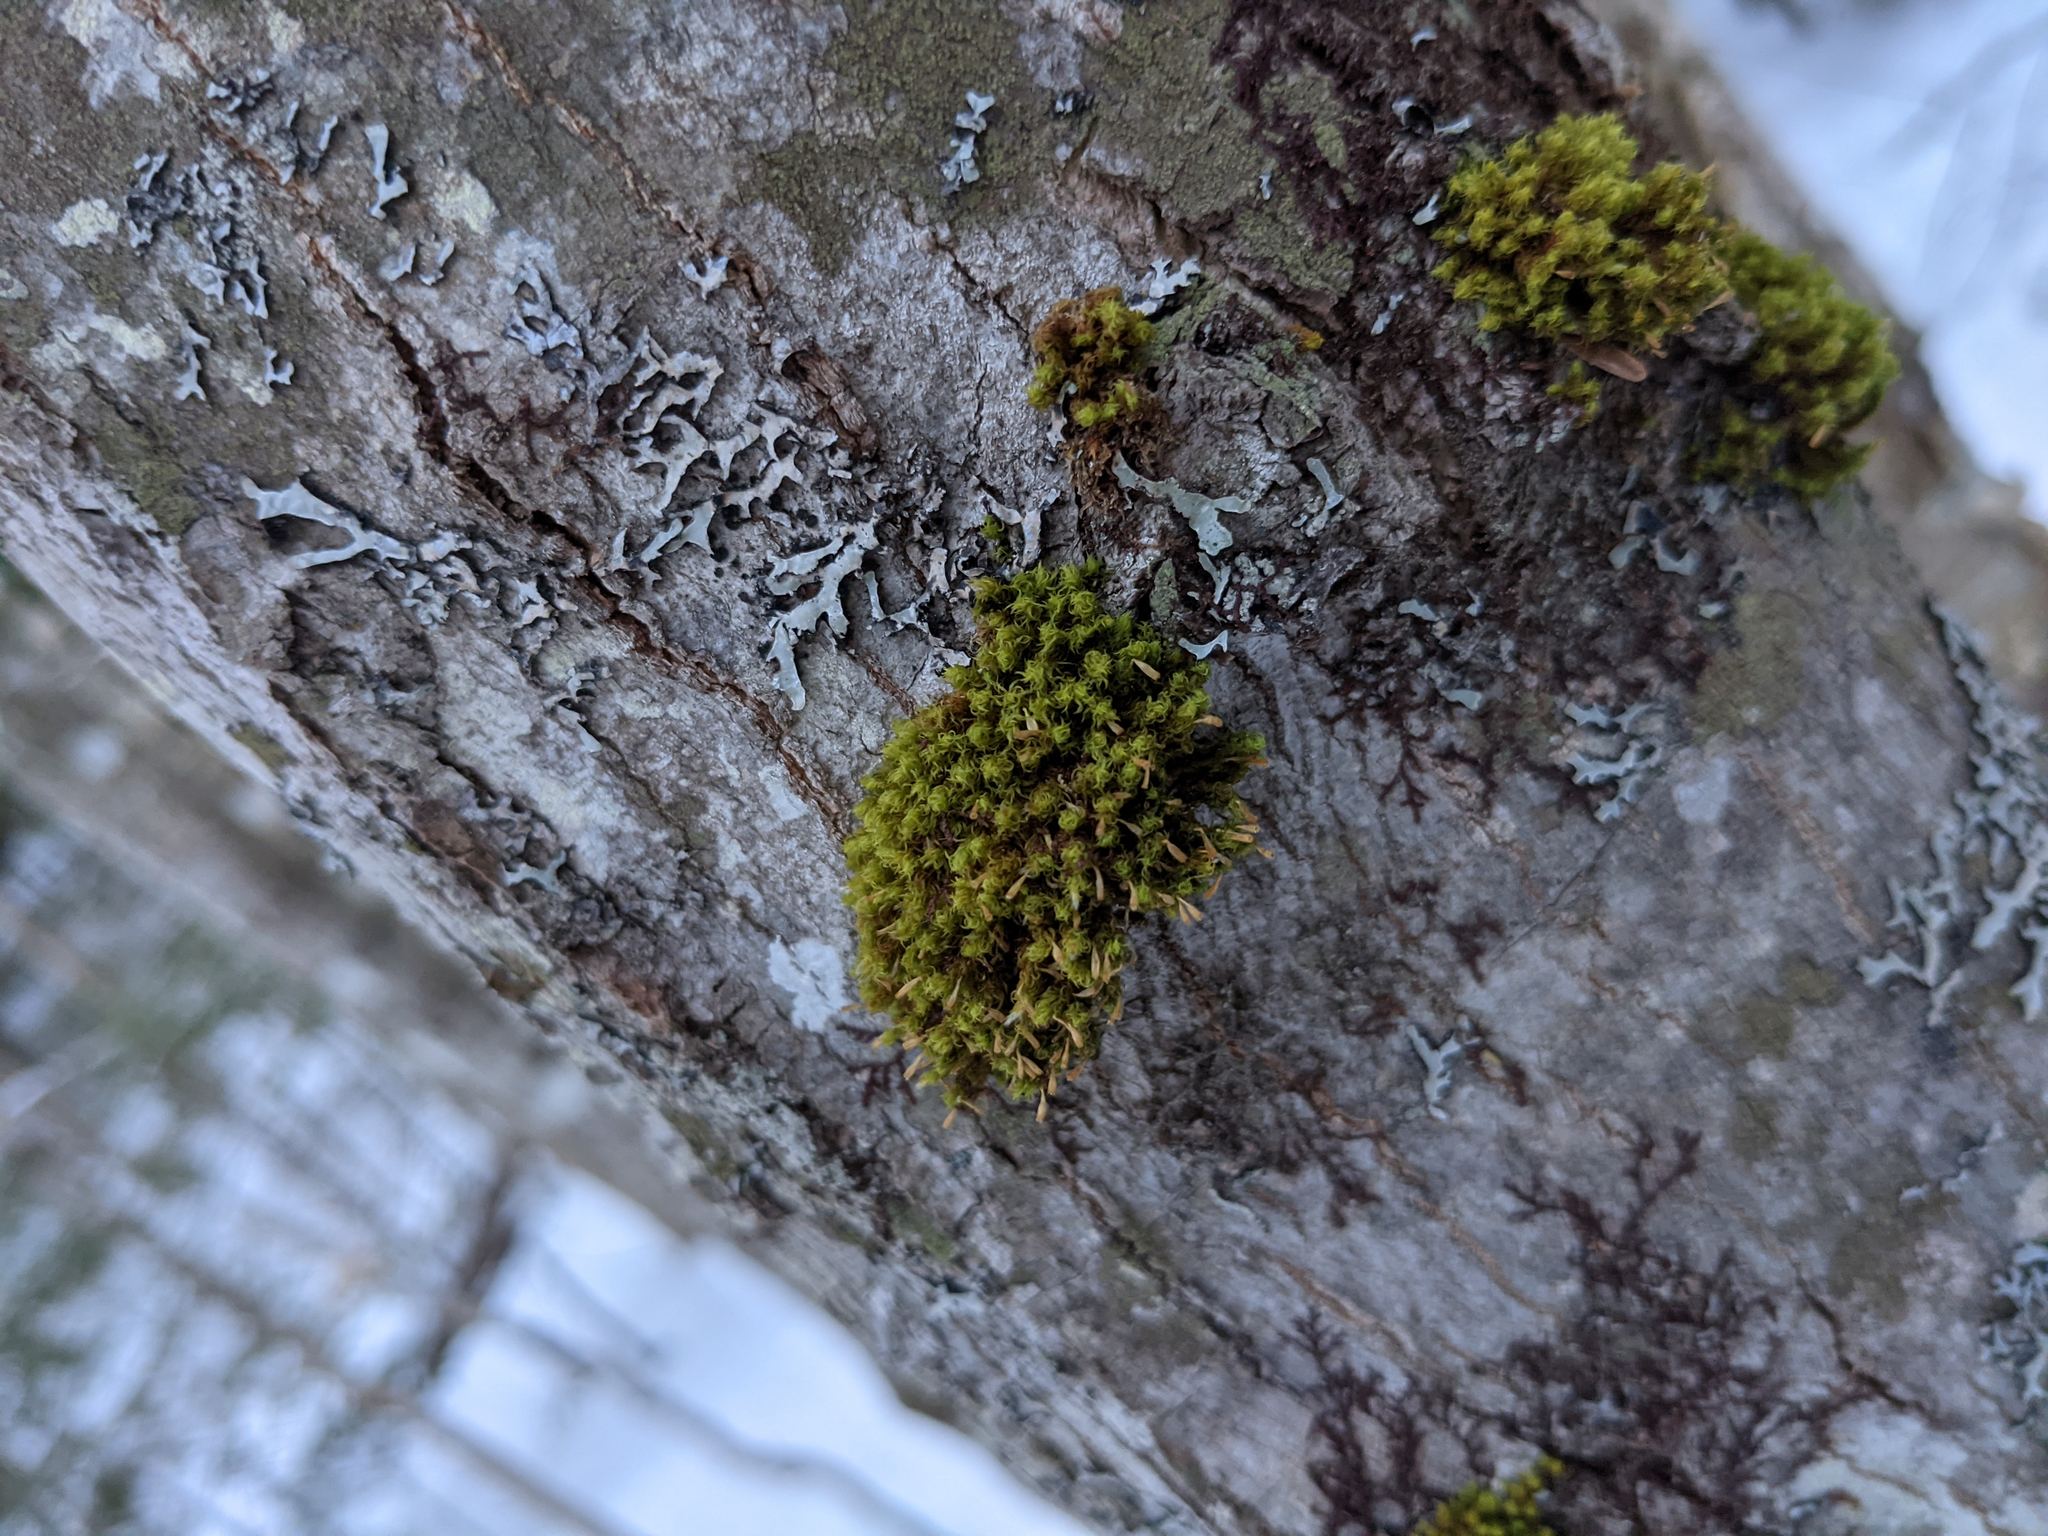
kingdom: Plantae
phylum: Bryophyta
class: Bryopsida
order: Orthotrichales
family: Orthotrichaceae
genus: Ulota
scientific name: Ulota crispa
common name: Crisped pincushion moss
